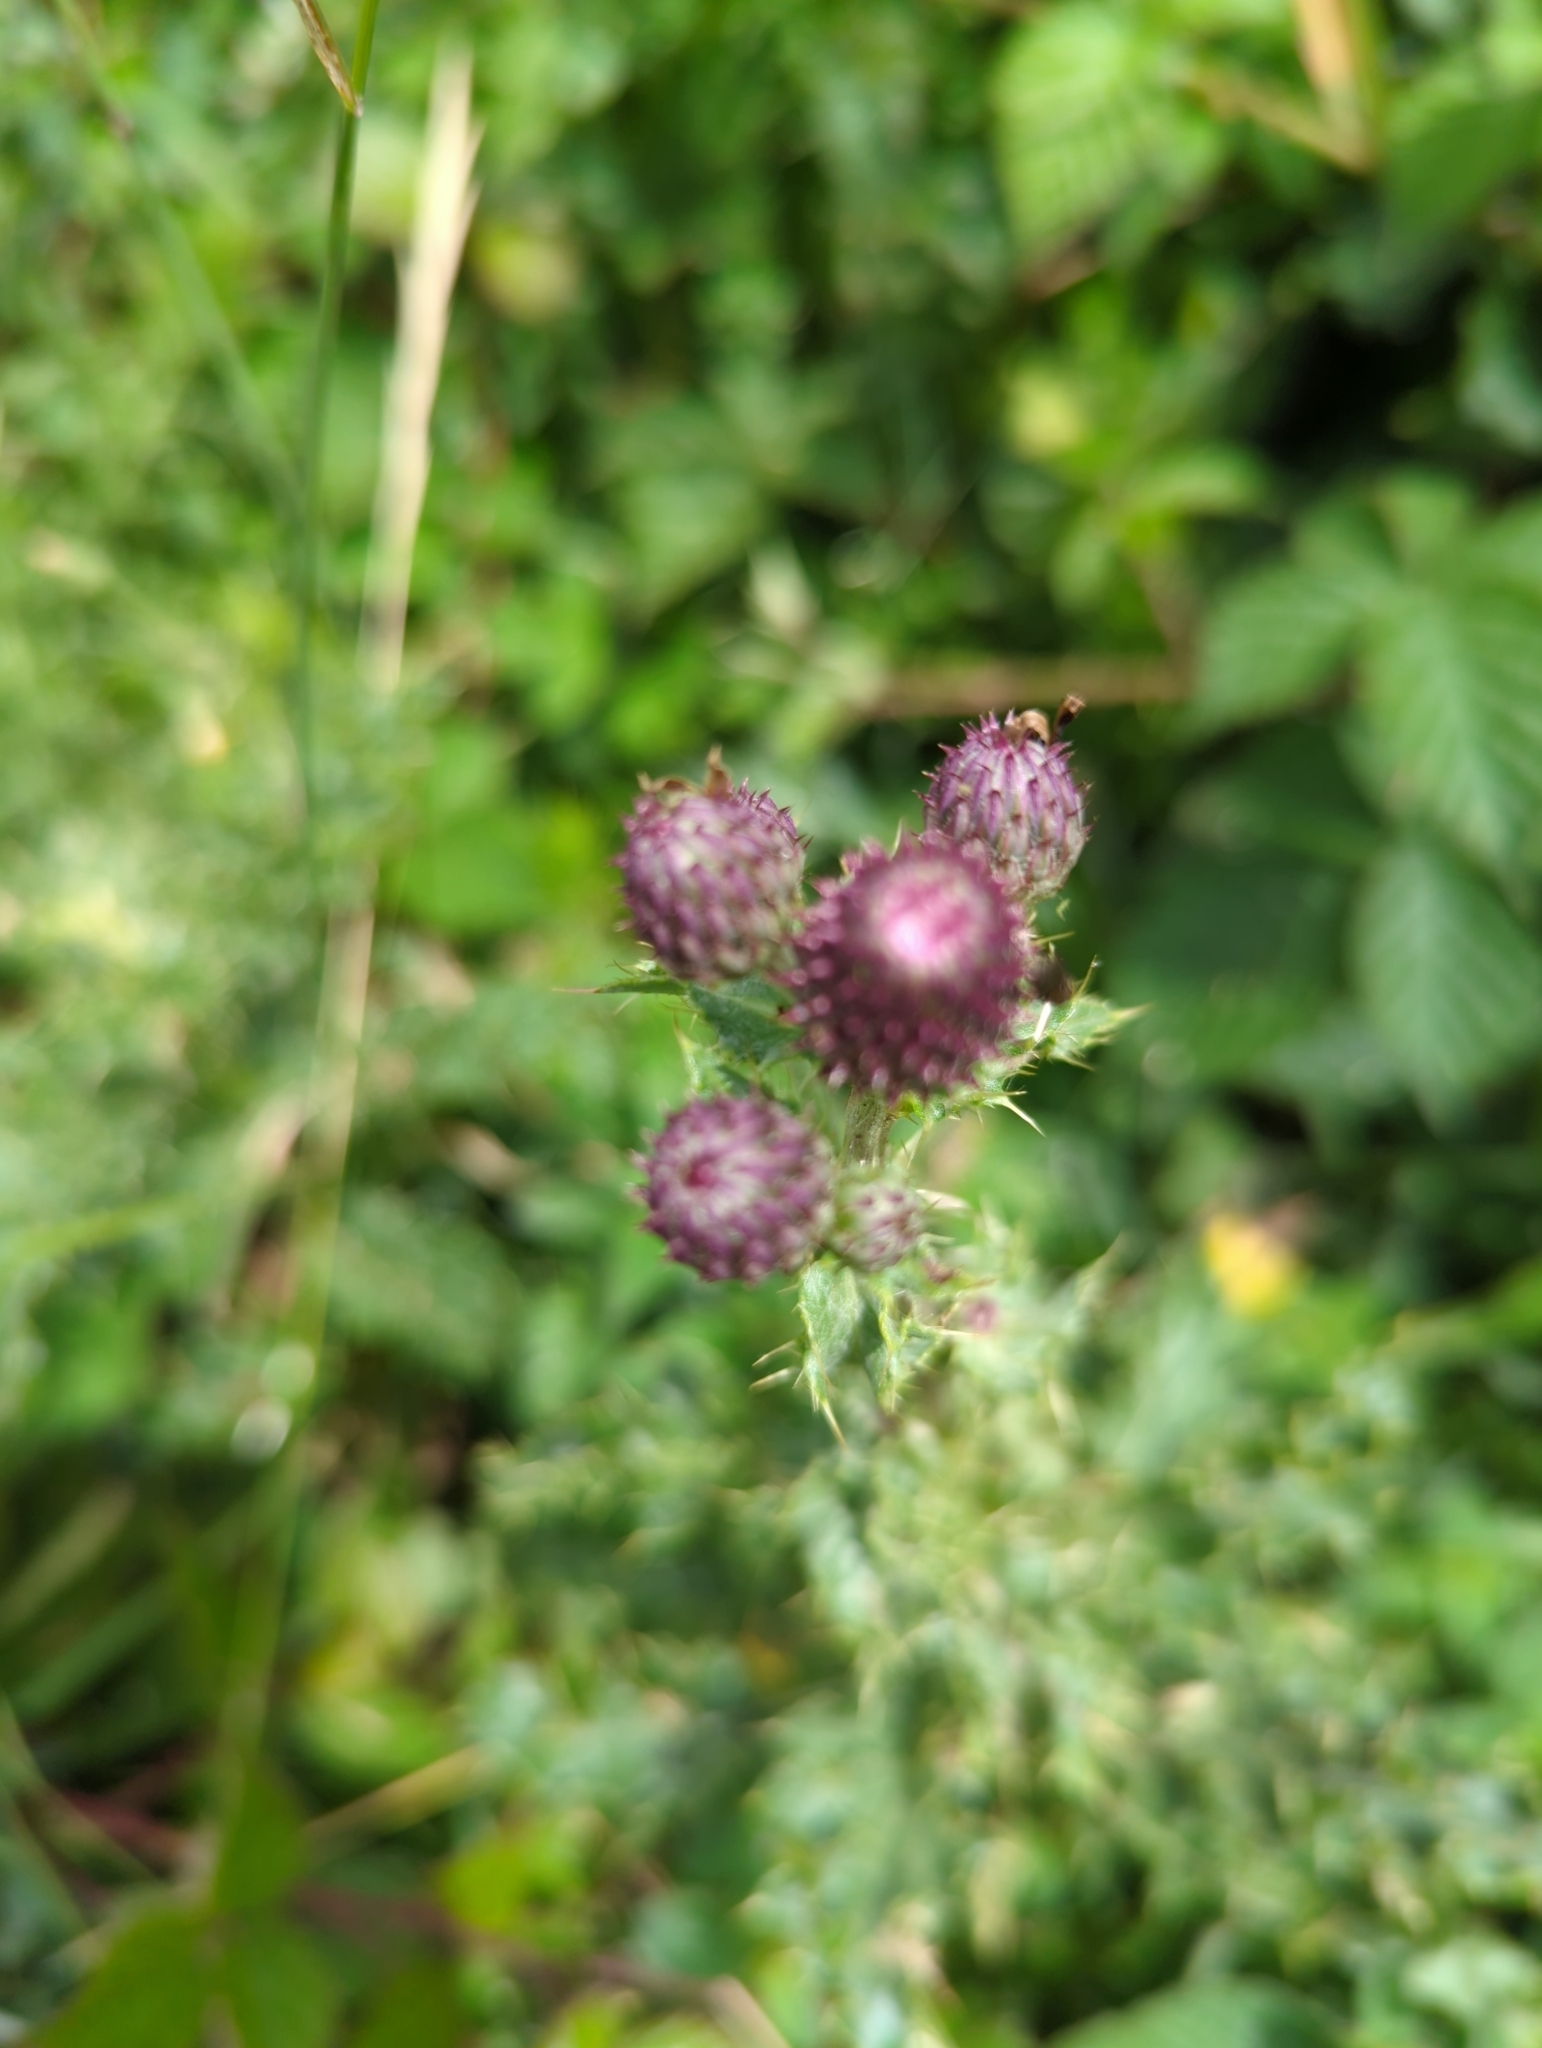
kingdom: Plantae
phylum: Tracheophyta
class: Magnoliopsida
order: Asterales
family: Asteraceae
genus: Cirsium
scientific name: Cirsium arvense
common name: Creeping thistle
